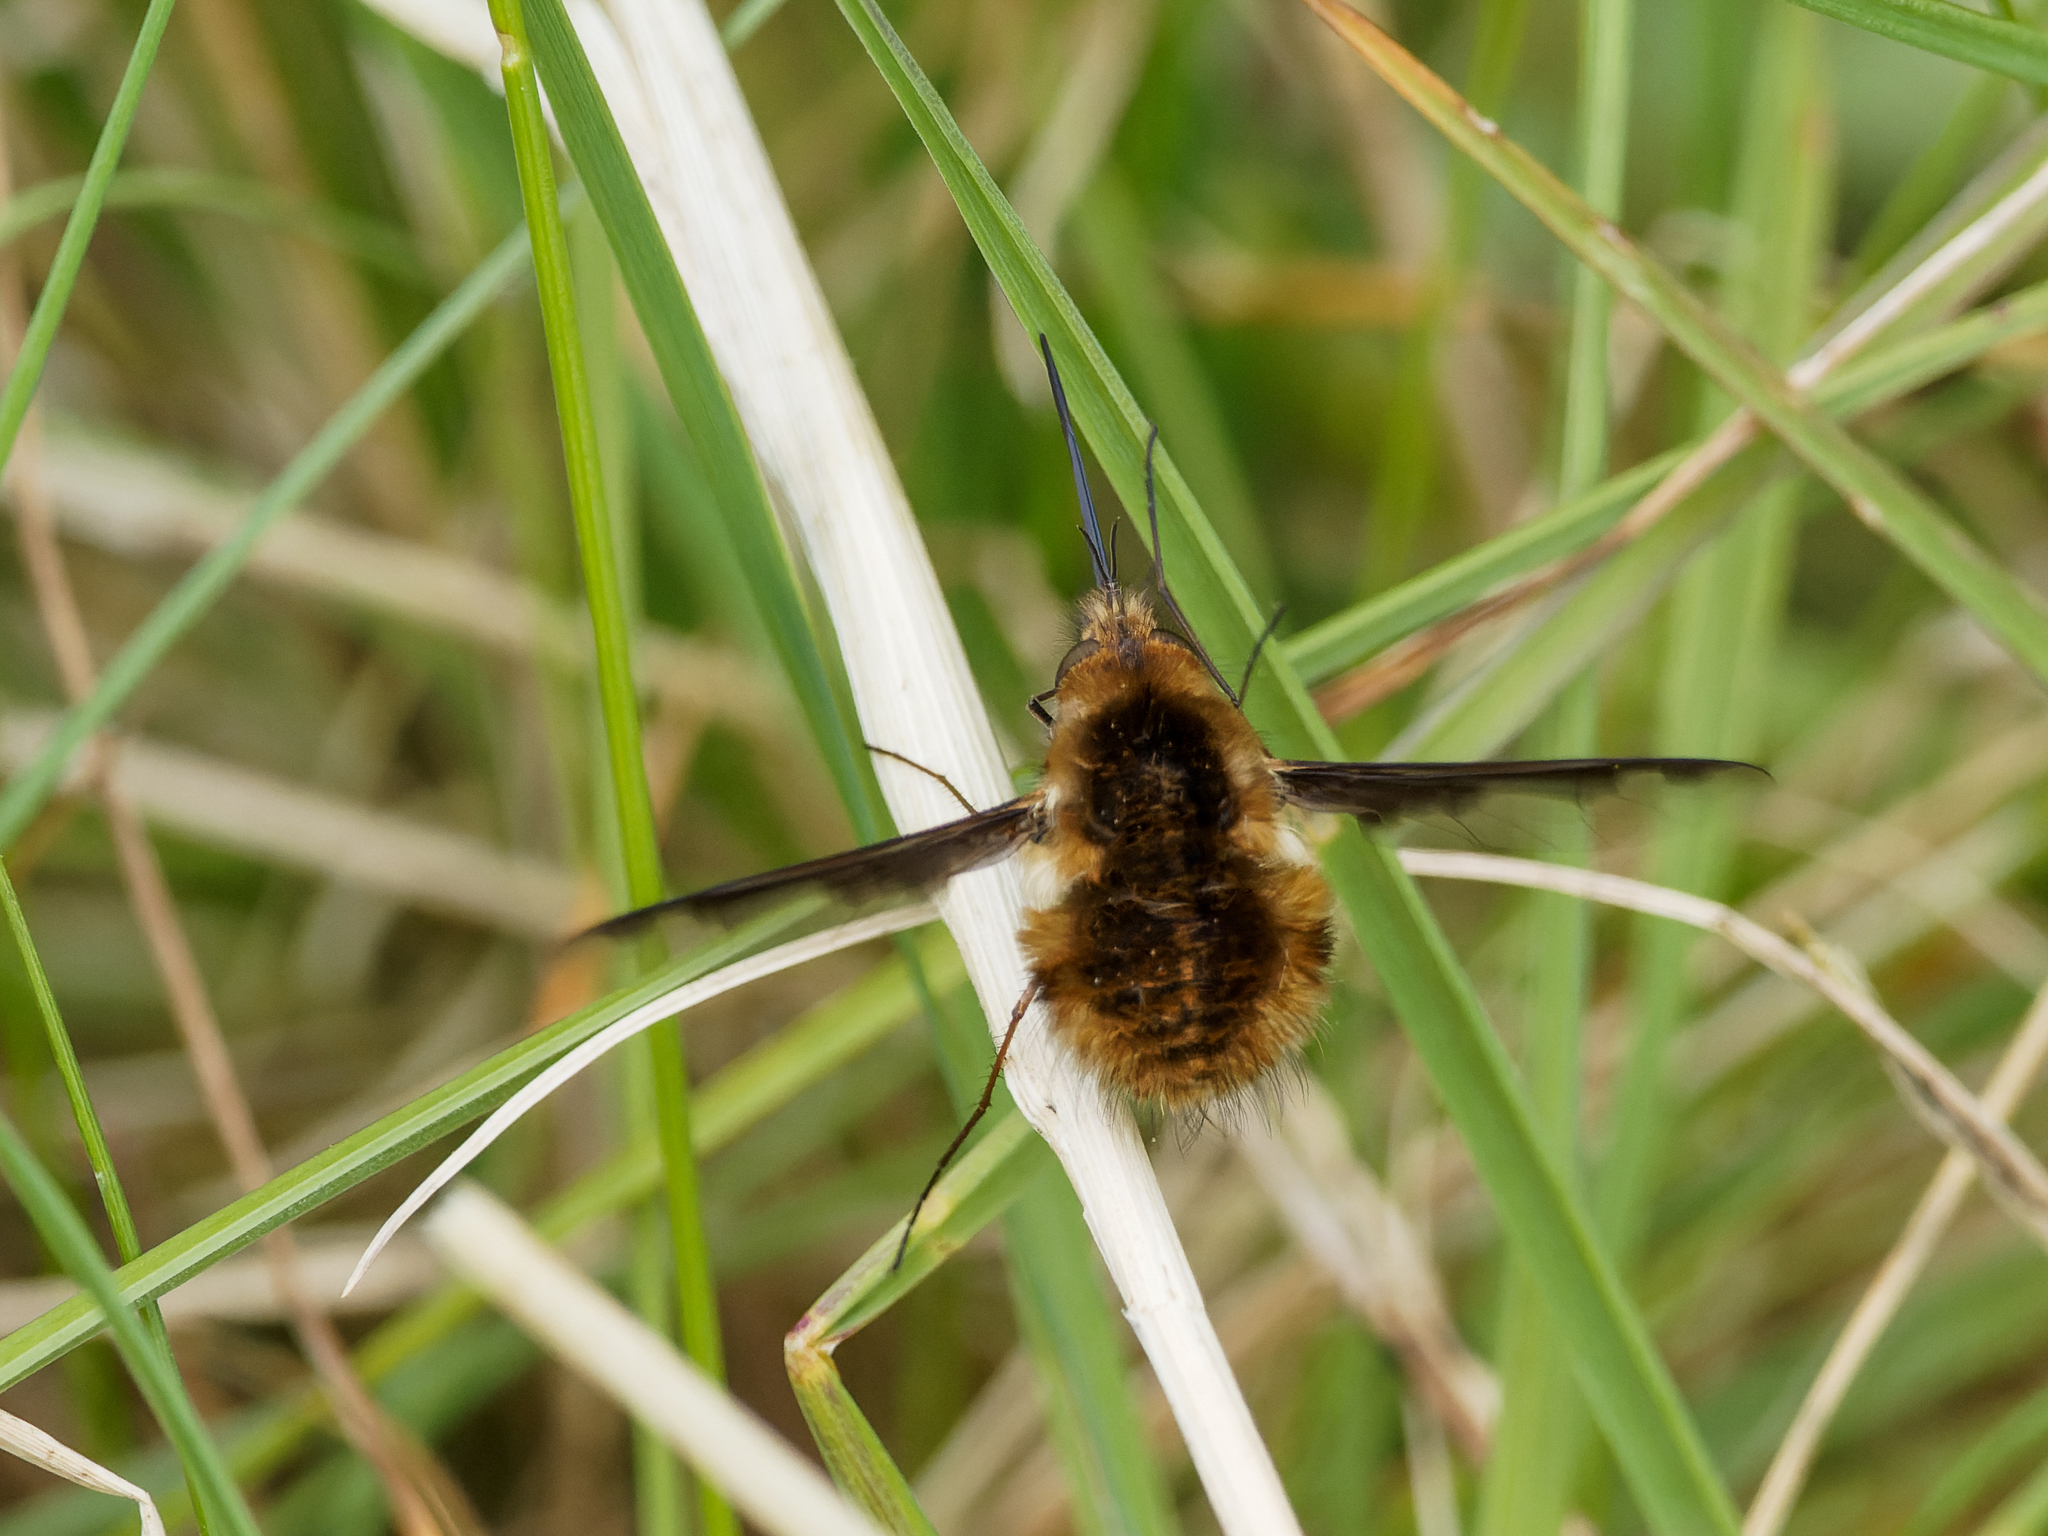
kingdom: Animalia
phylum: Arthropoda
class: Insecta
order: Diptera
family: Bombyliidae
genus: Bombylius
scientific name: Bombylius major
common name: Bee fly
